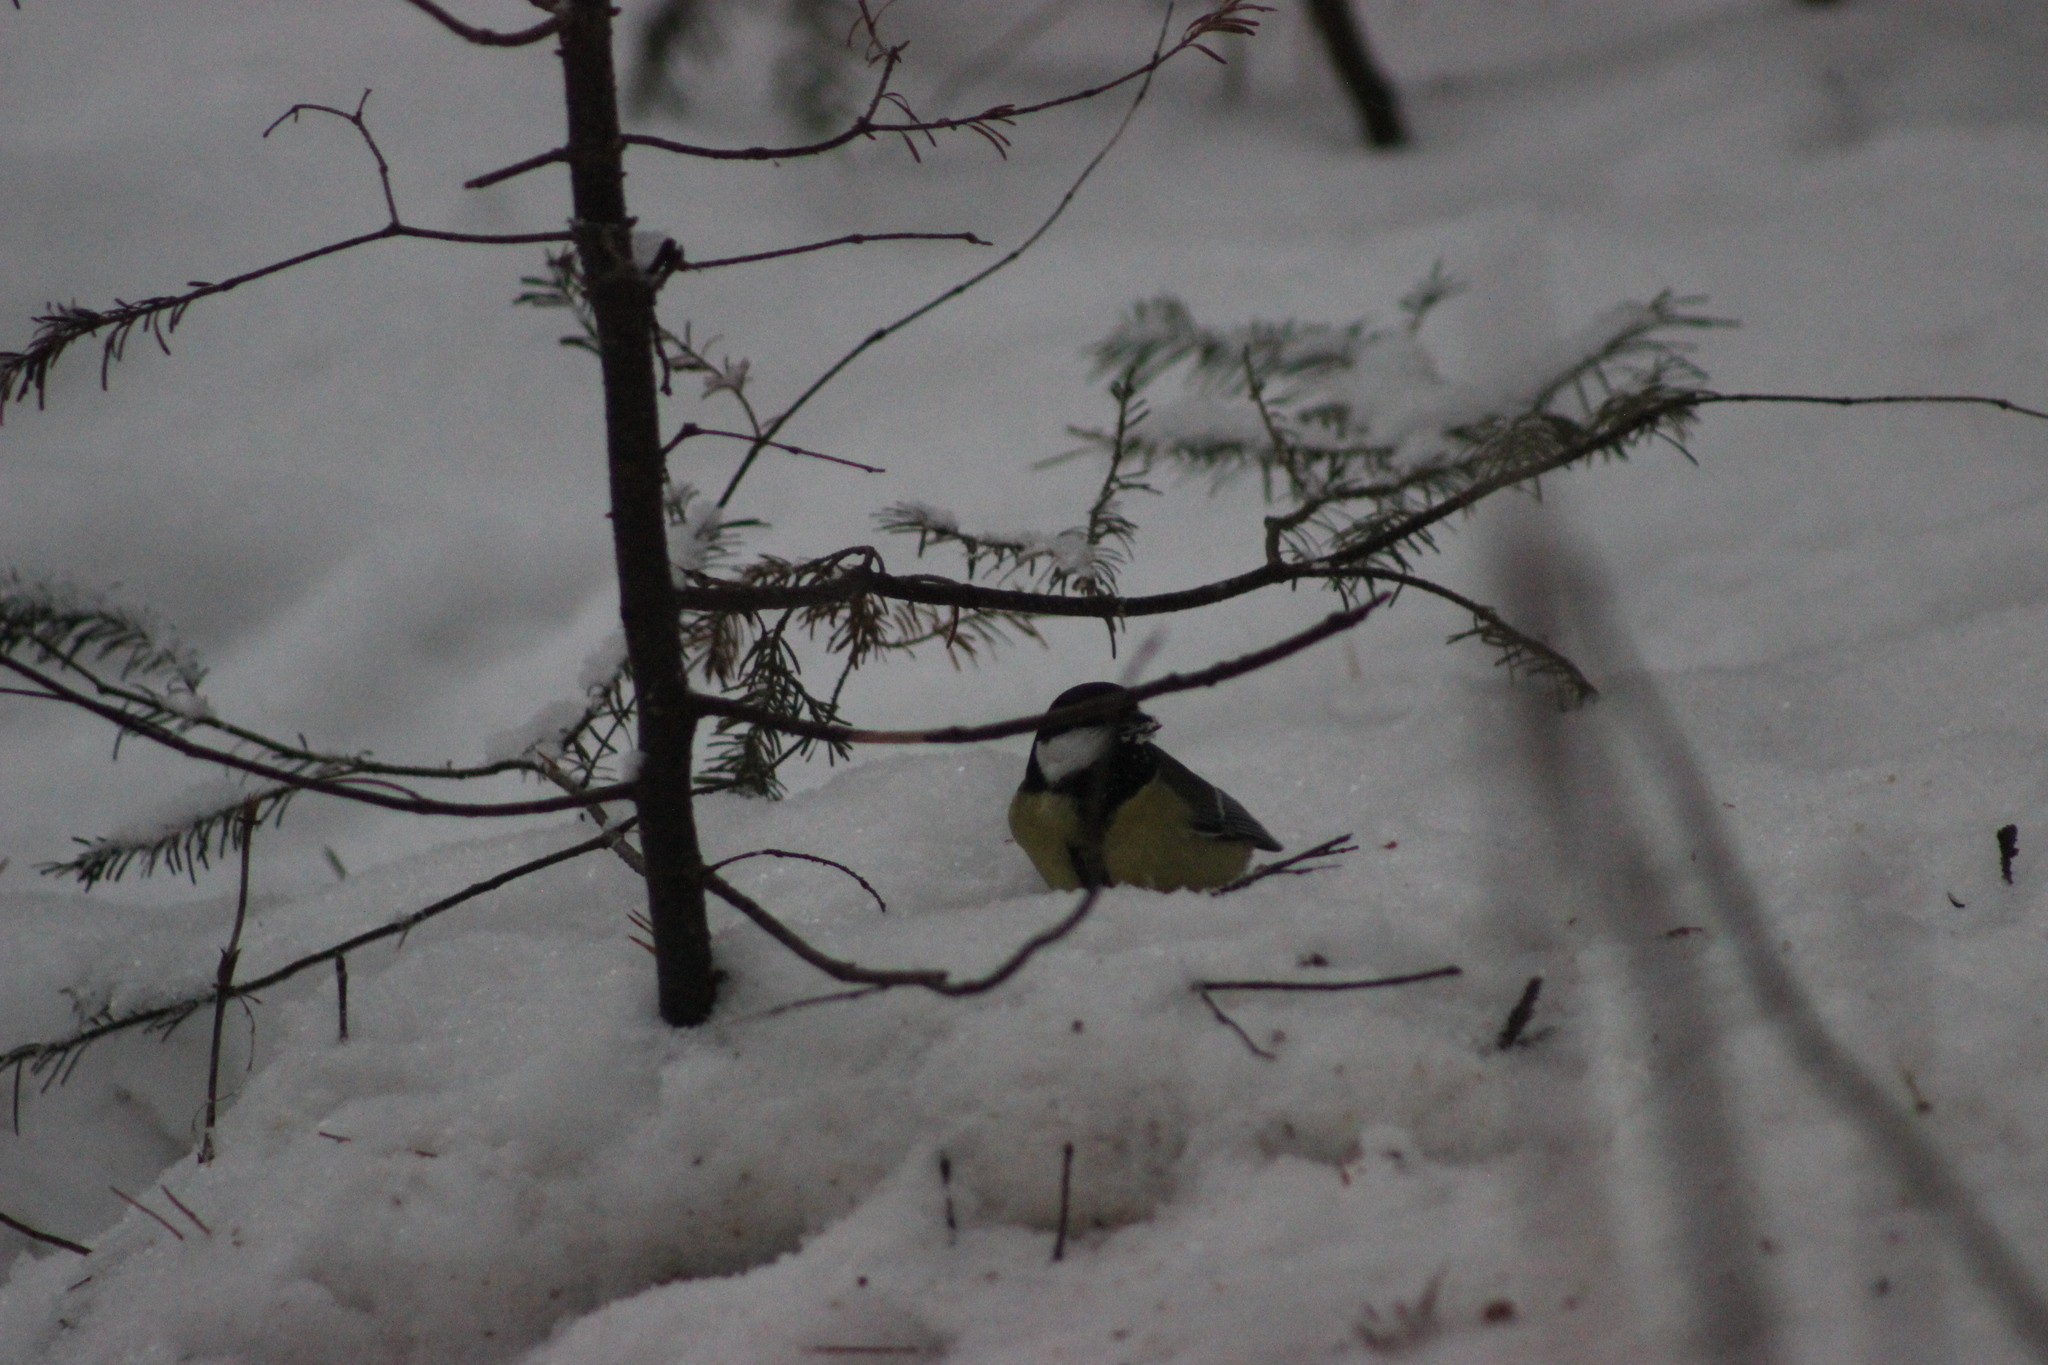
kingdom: Animalia
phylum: Chordata
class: Aves
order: Passeriformes
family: Paridae
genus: Parus
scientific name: Parus major
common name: Great tit
